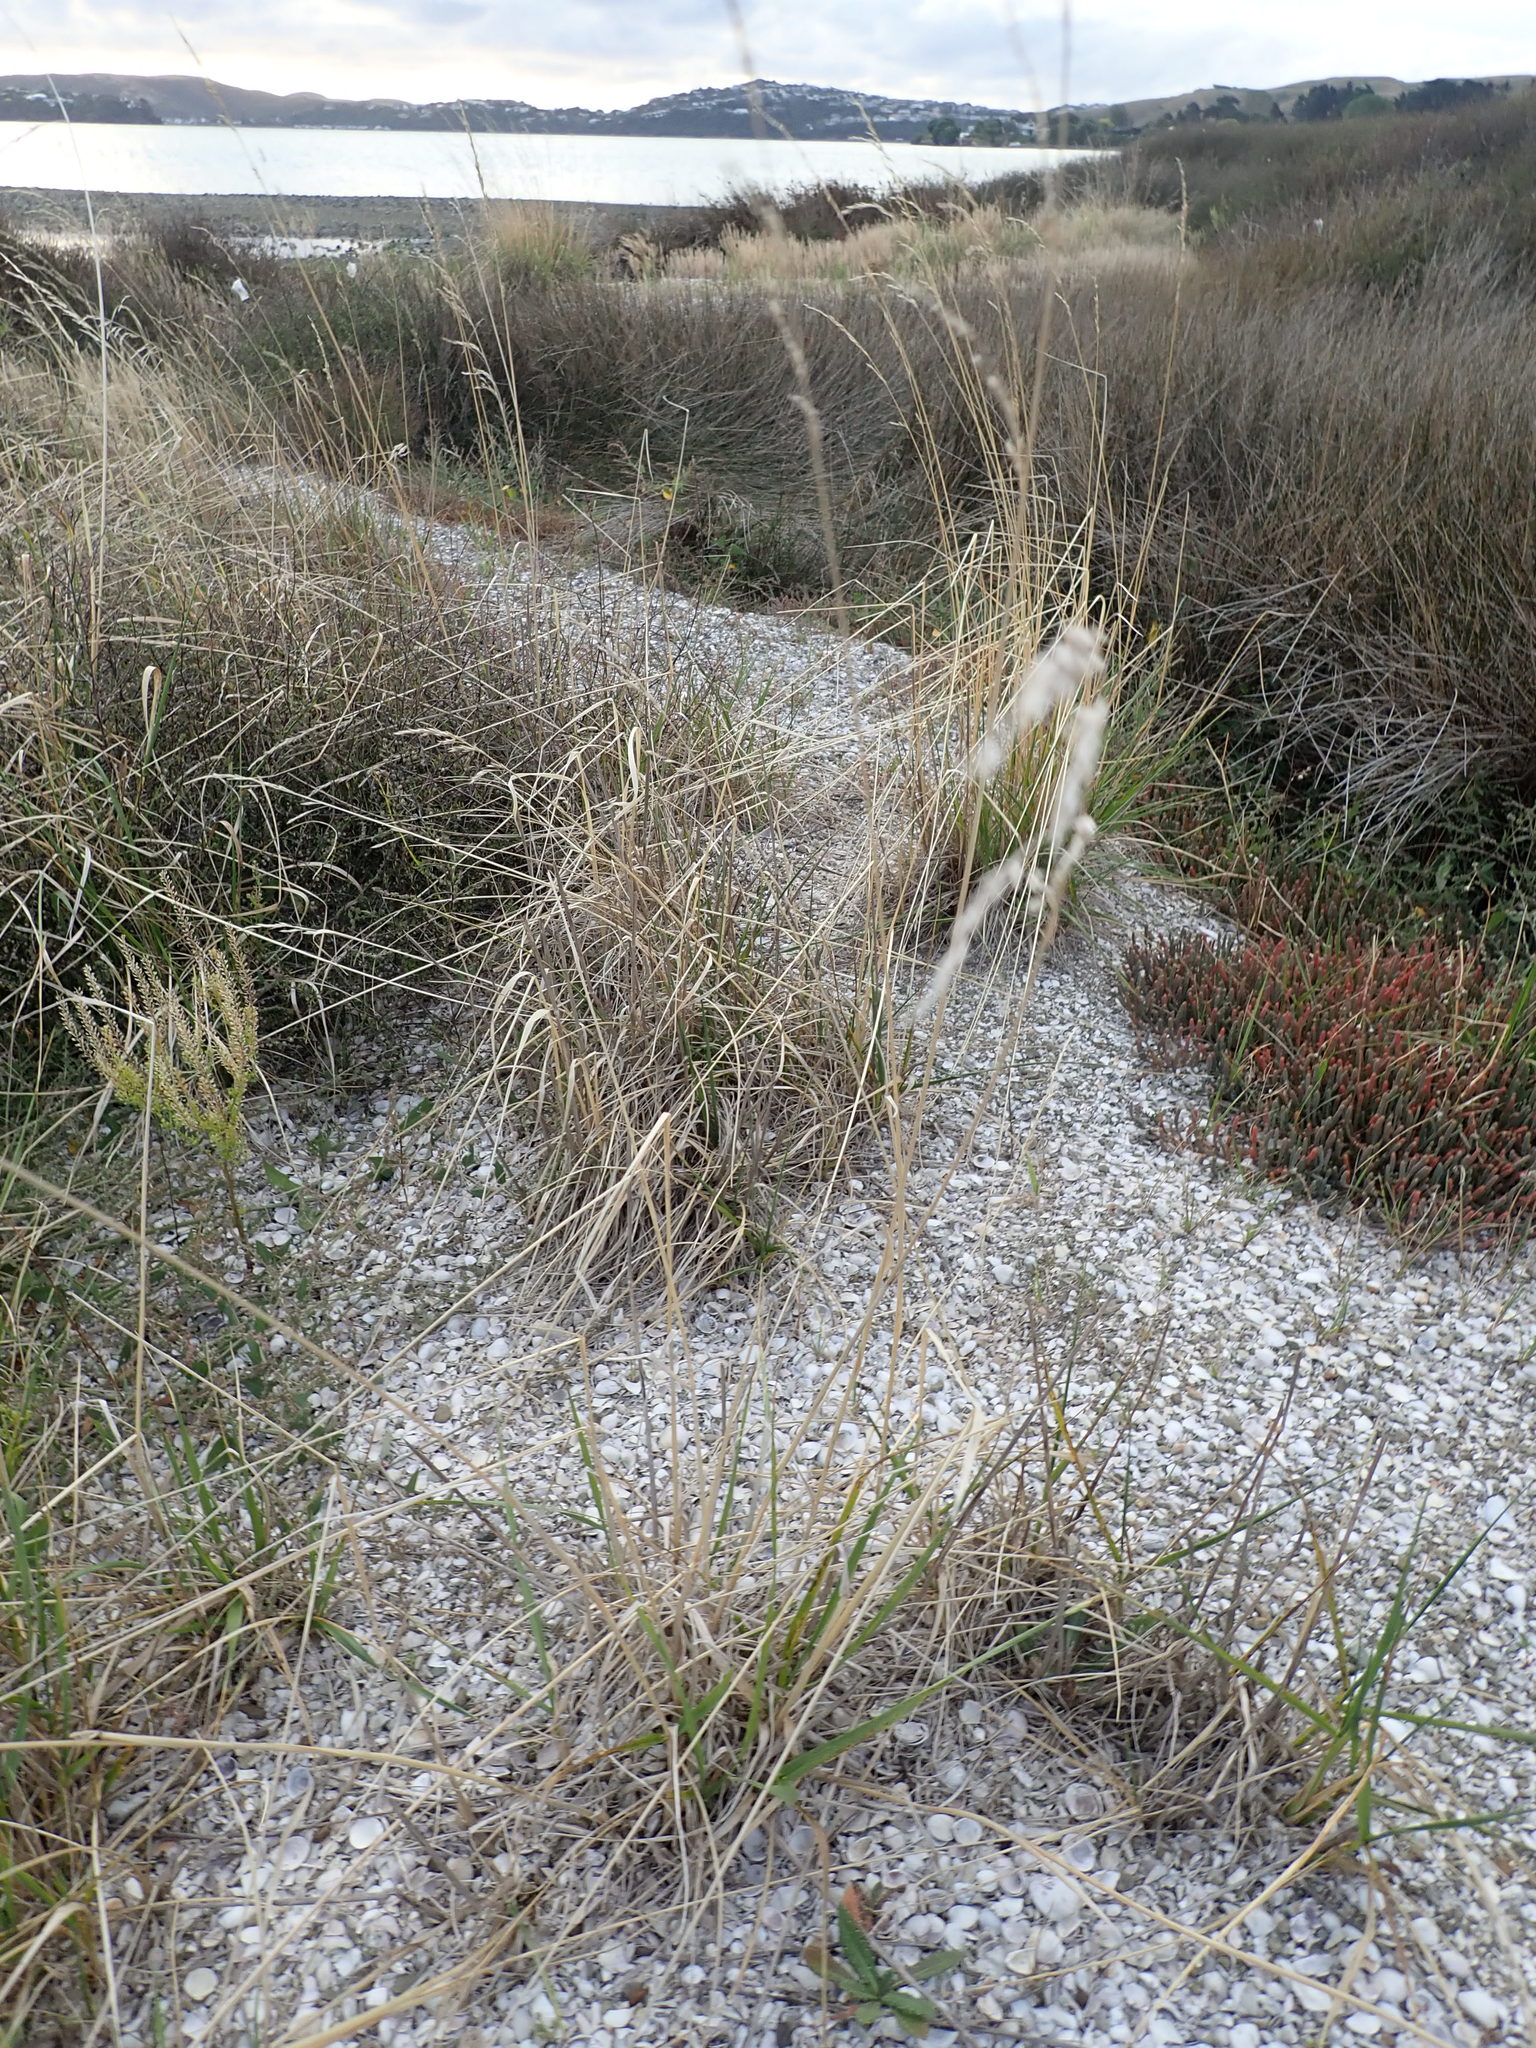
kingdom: Plantae
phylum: Tracheophyta
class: Liliopsida
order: Poales
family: Poaceae
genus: Lolium
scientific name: Lolium arundinaceum
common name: Reed fescue
